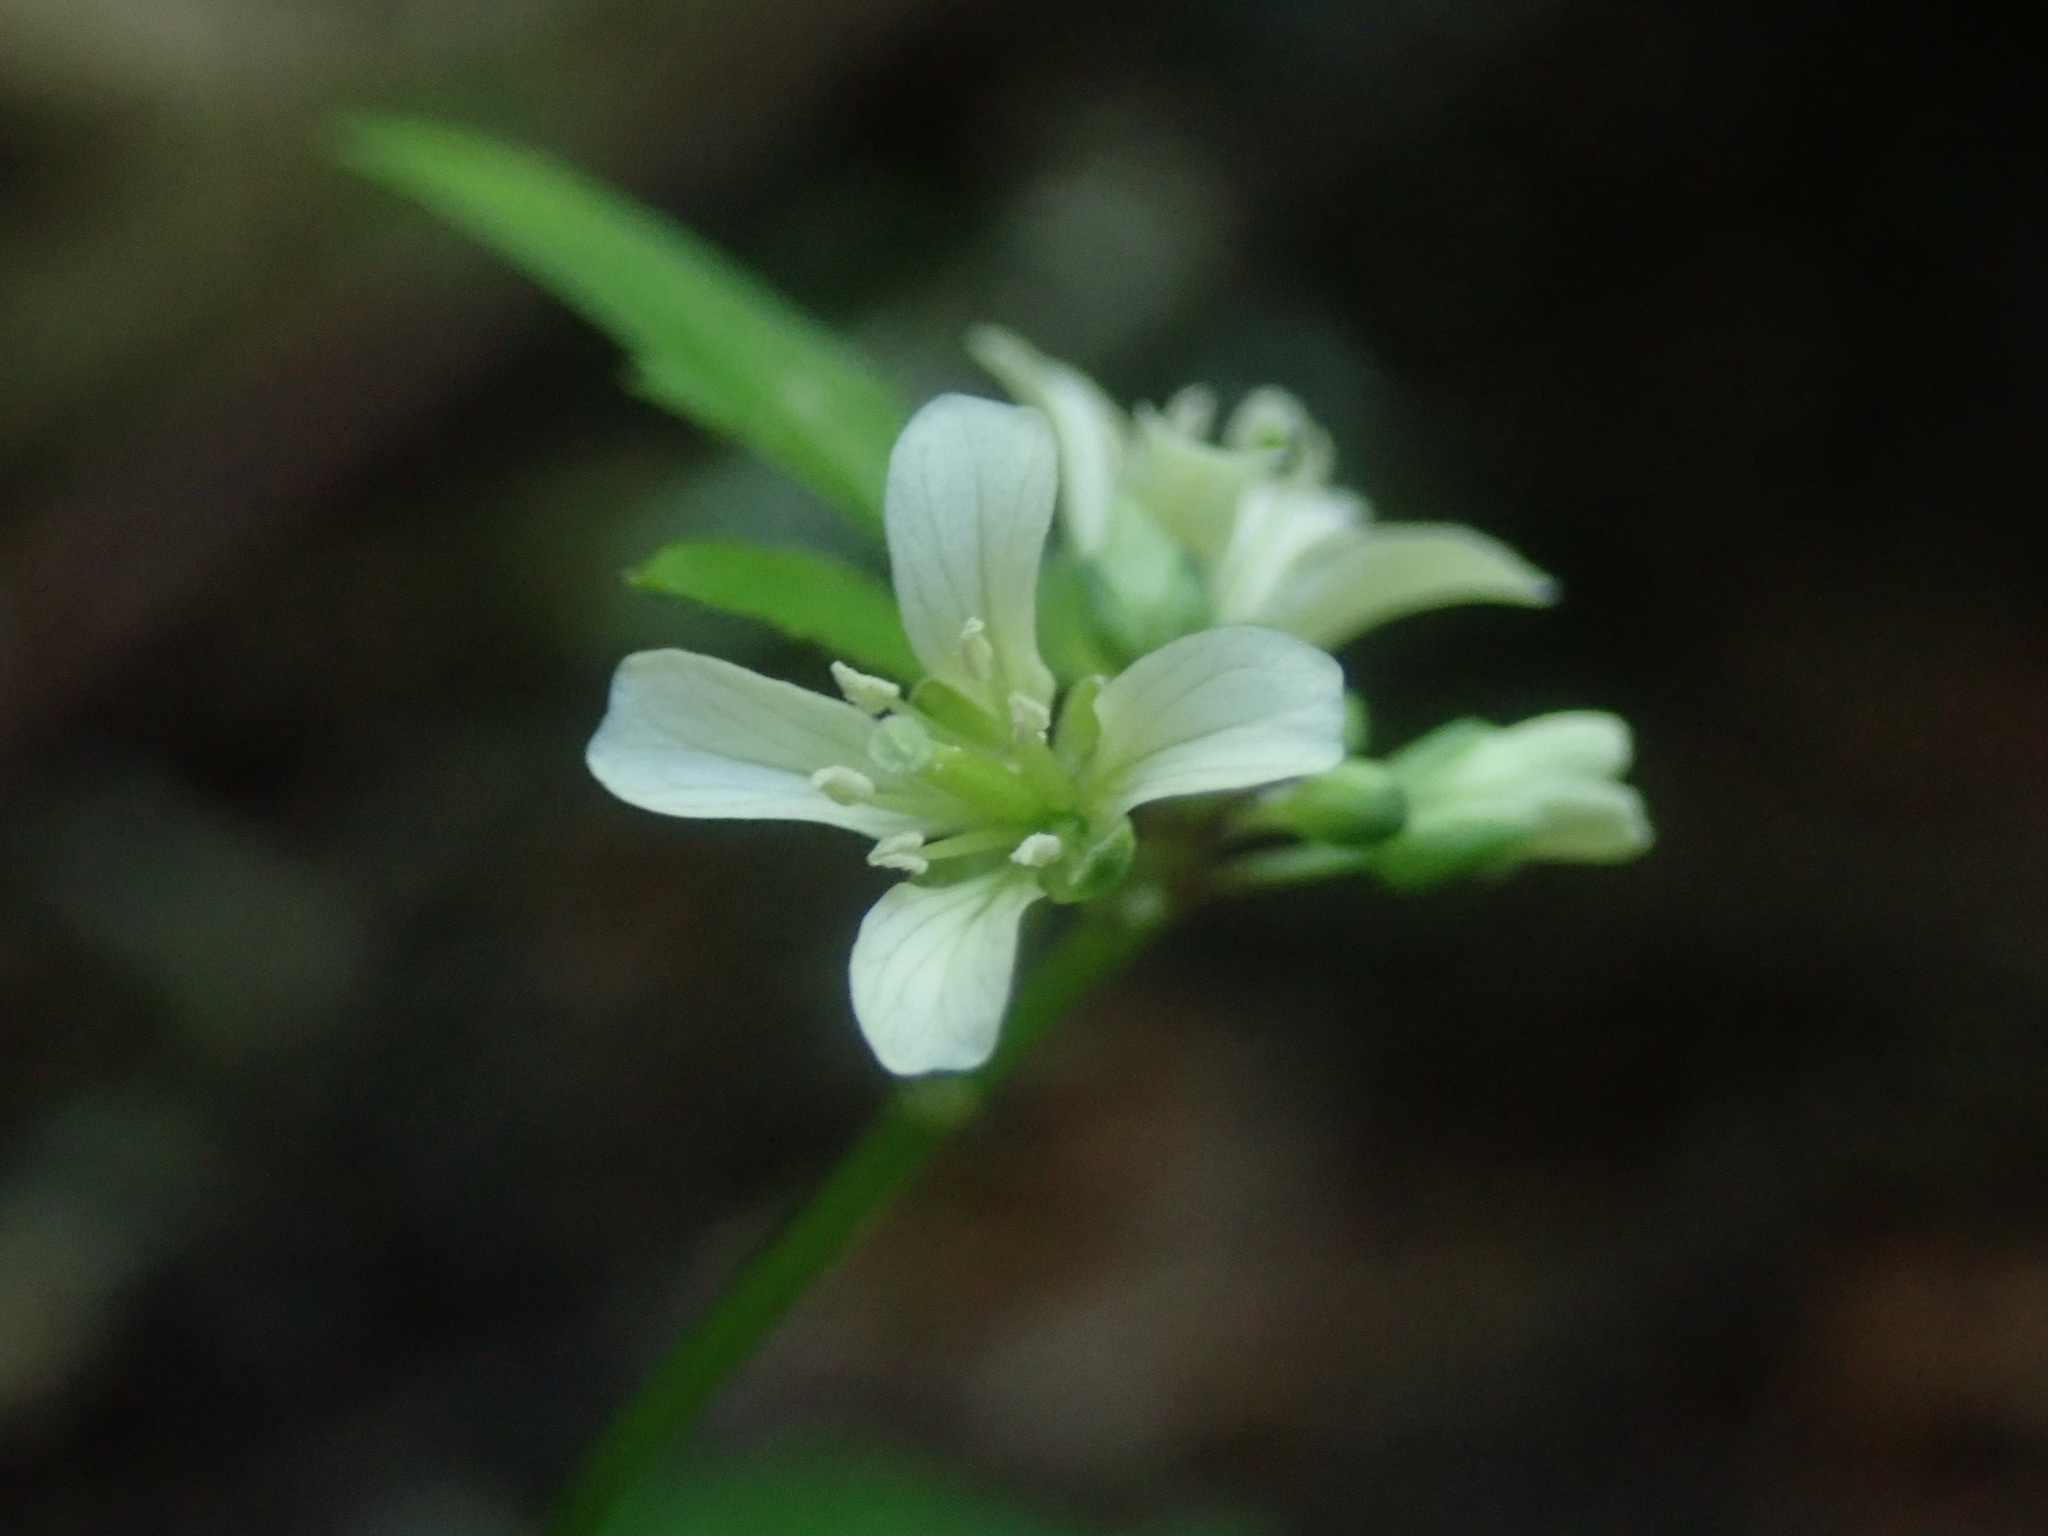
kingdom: Plantae
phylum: Tracheophyta
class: Magnoliopsida
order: Brassicales
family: Brassicaceae
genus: Cardamine
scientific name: Cardamine africana
